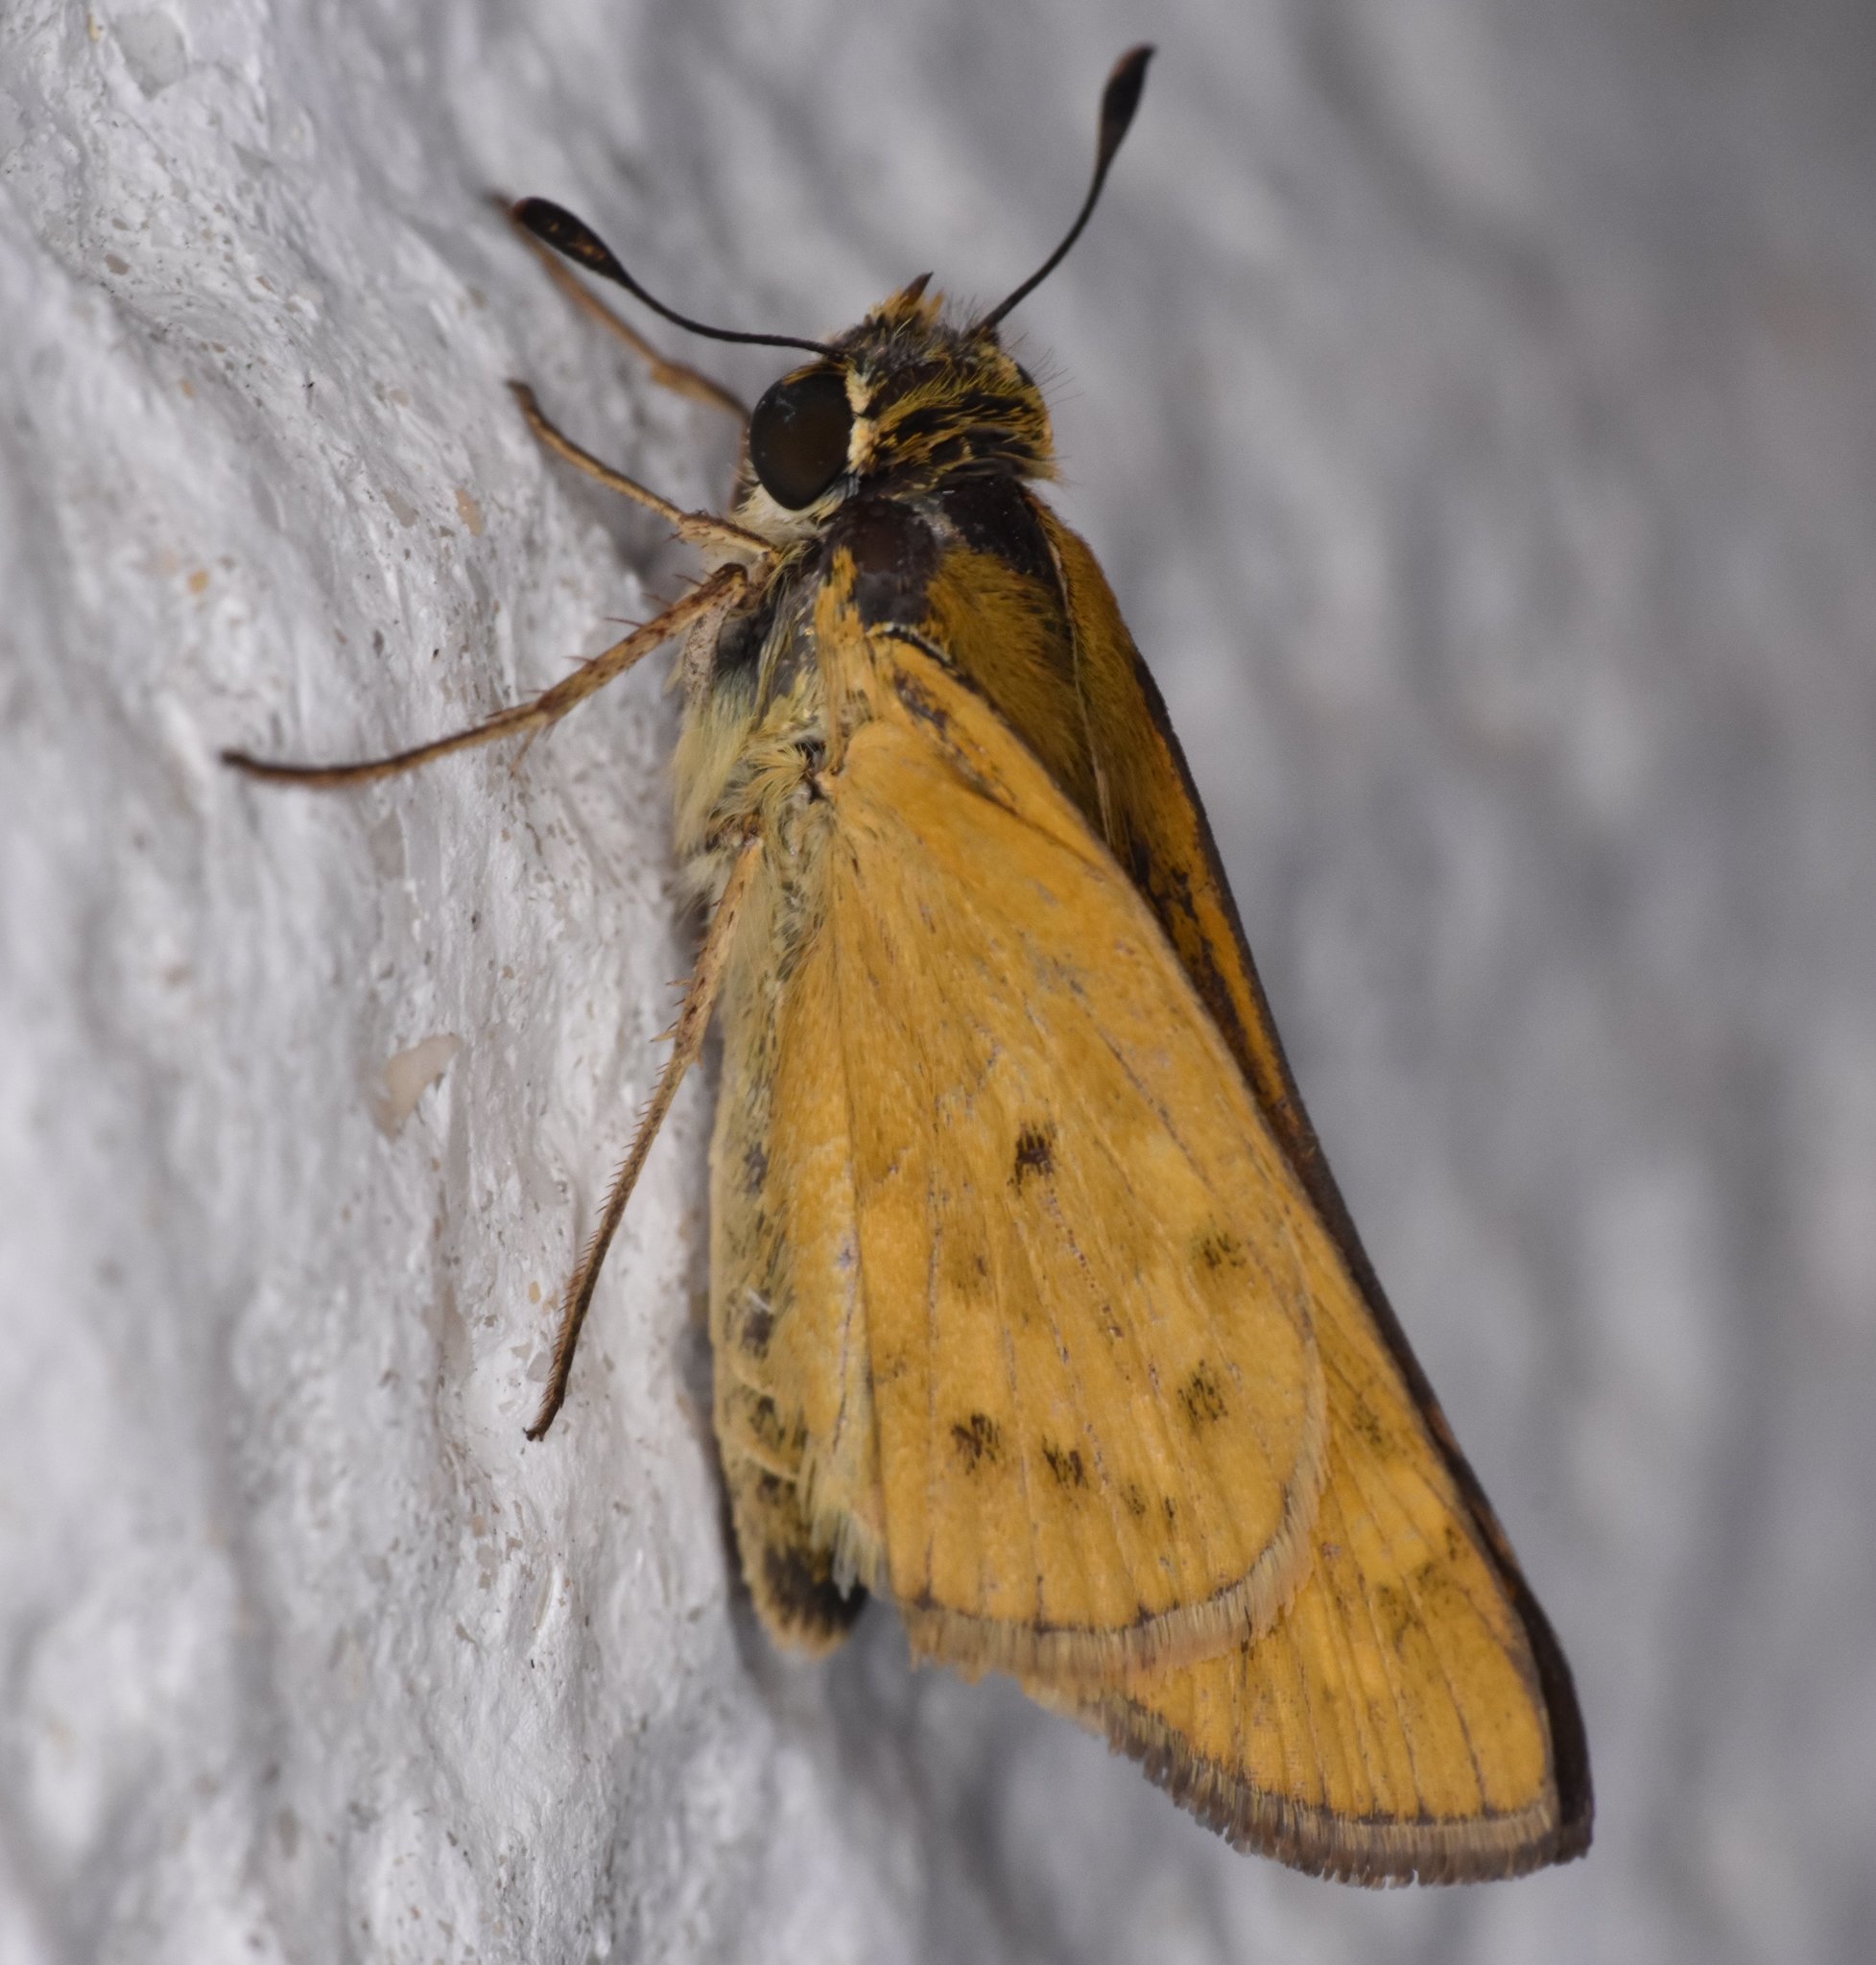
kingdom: Animalia
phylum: Arthropoda
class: Insecta
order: Lepidoptera
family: Hesperiidae
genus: Hylephila
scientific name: Hylephila phyleus
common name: Fiery skipper
